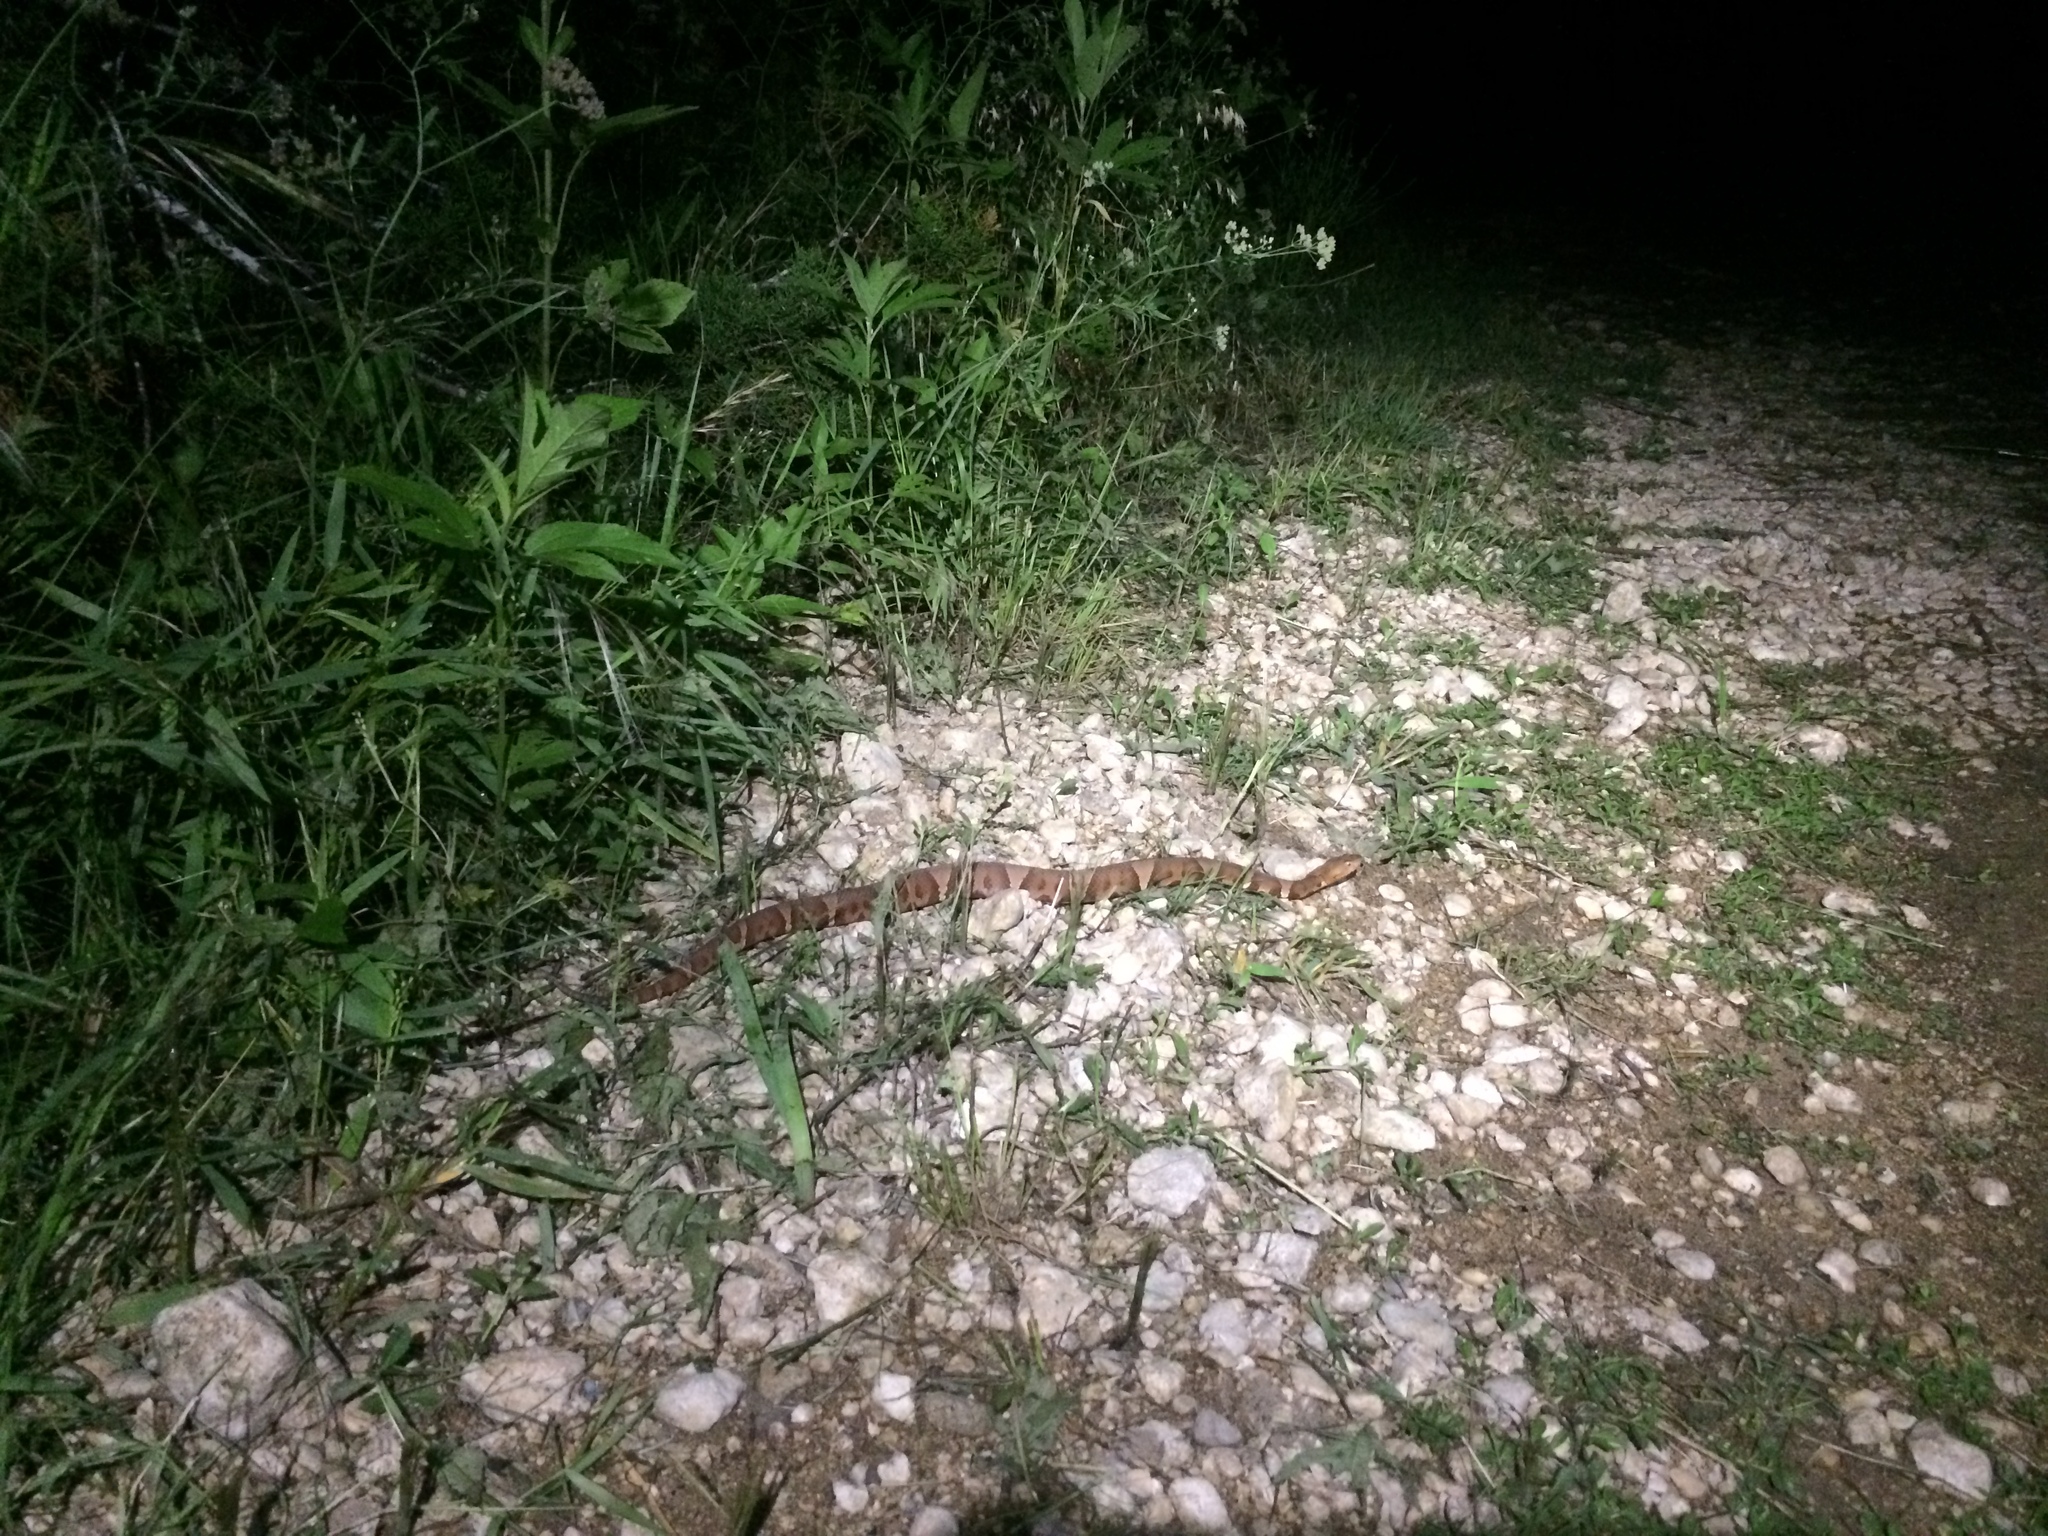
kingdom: Animalia
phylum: Chordata
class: Squamata
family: Viperidae
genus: Agkistrodon
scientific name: Agkistrodon laticinctus
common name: Broad-banded copperhead
